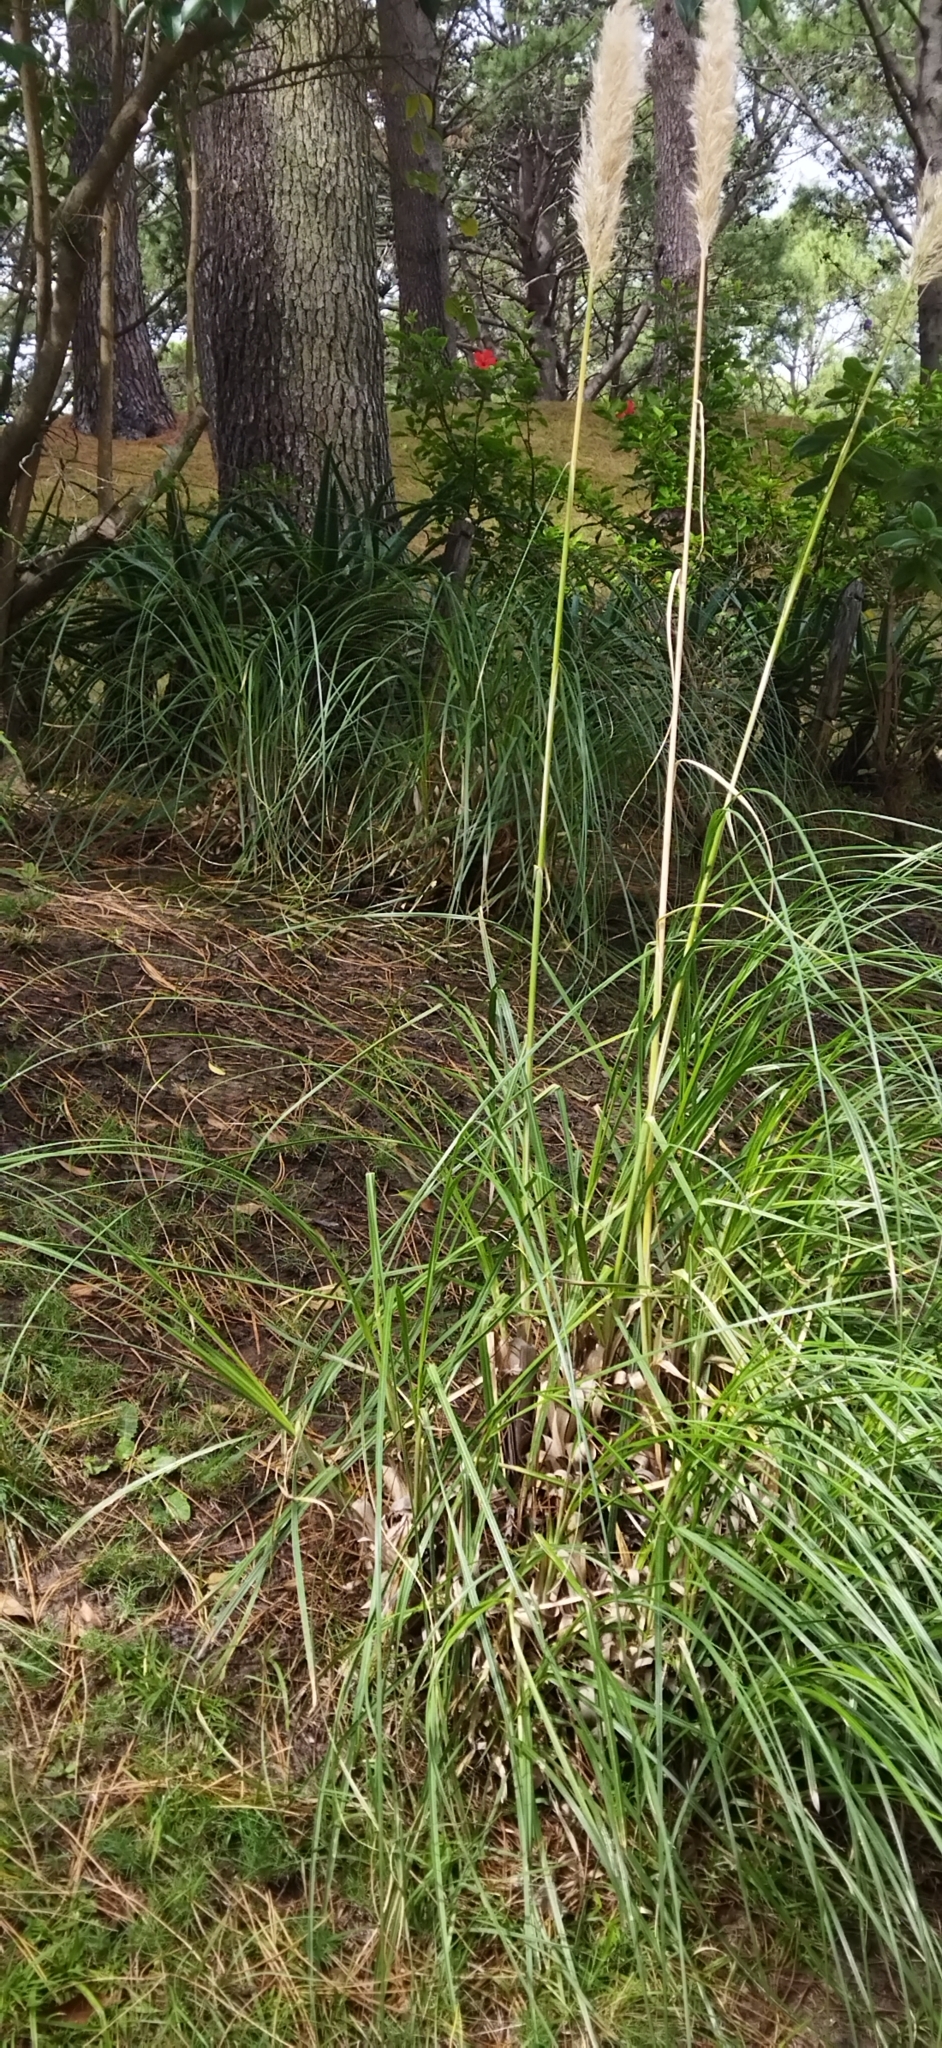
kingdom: Plantae
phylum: Tracheophyta
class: Liliopsida
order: Poales
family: Poaceae
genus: Cortaderia
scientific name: Cortaderia selloana
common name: Uruguayan pampas grass
